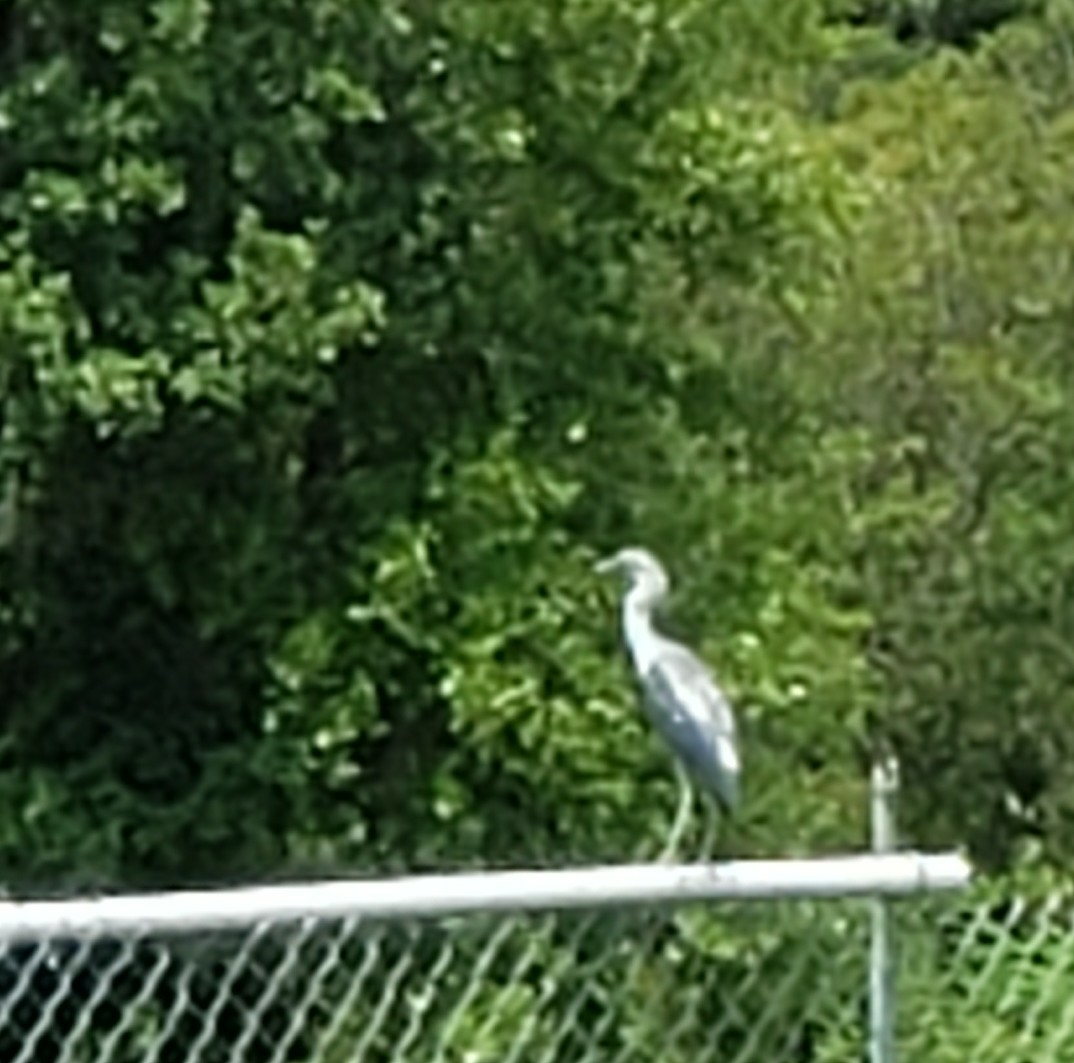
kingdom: Animalia
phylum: Chordata
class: Aves
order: Pelecaniformes
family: Ardeidae
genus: Egretta
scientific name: Egretta caerulea
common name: Little blue heron
